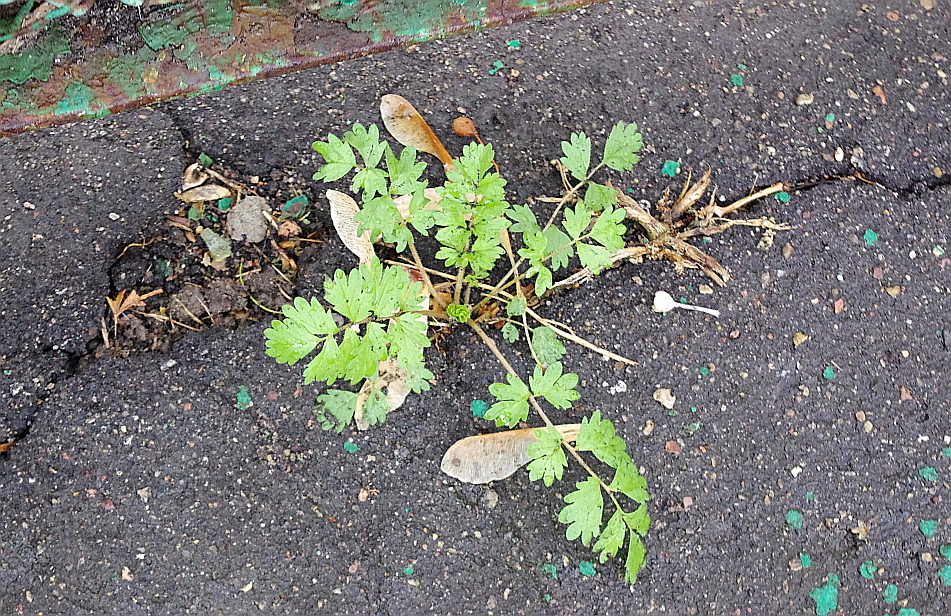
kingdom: Plantae
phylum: Tracheophyta
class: Magnoliopsida
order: Rosales
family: Rosaceae
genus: Potentilla
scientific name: Potentilla supina
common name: Prostrate cinquefoil
